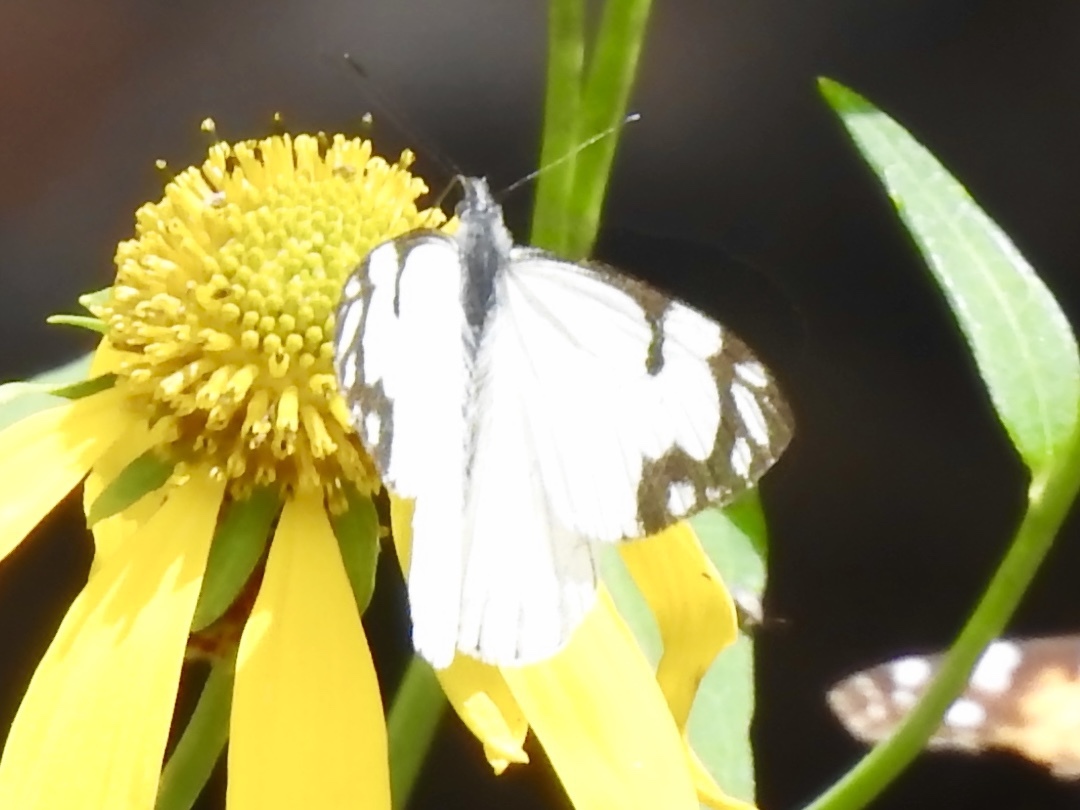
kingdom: Animalia
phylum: Arthropoda
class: Insecta
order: Lepidoptera
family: Pieridae
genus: Neophasia
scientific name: Neophasia menapia
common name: Pine white
